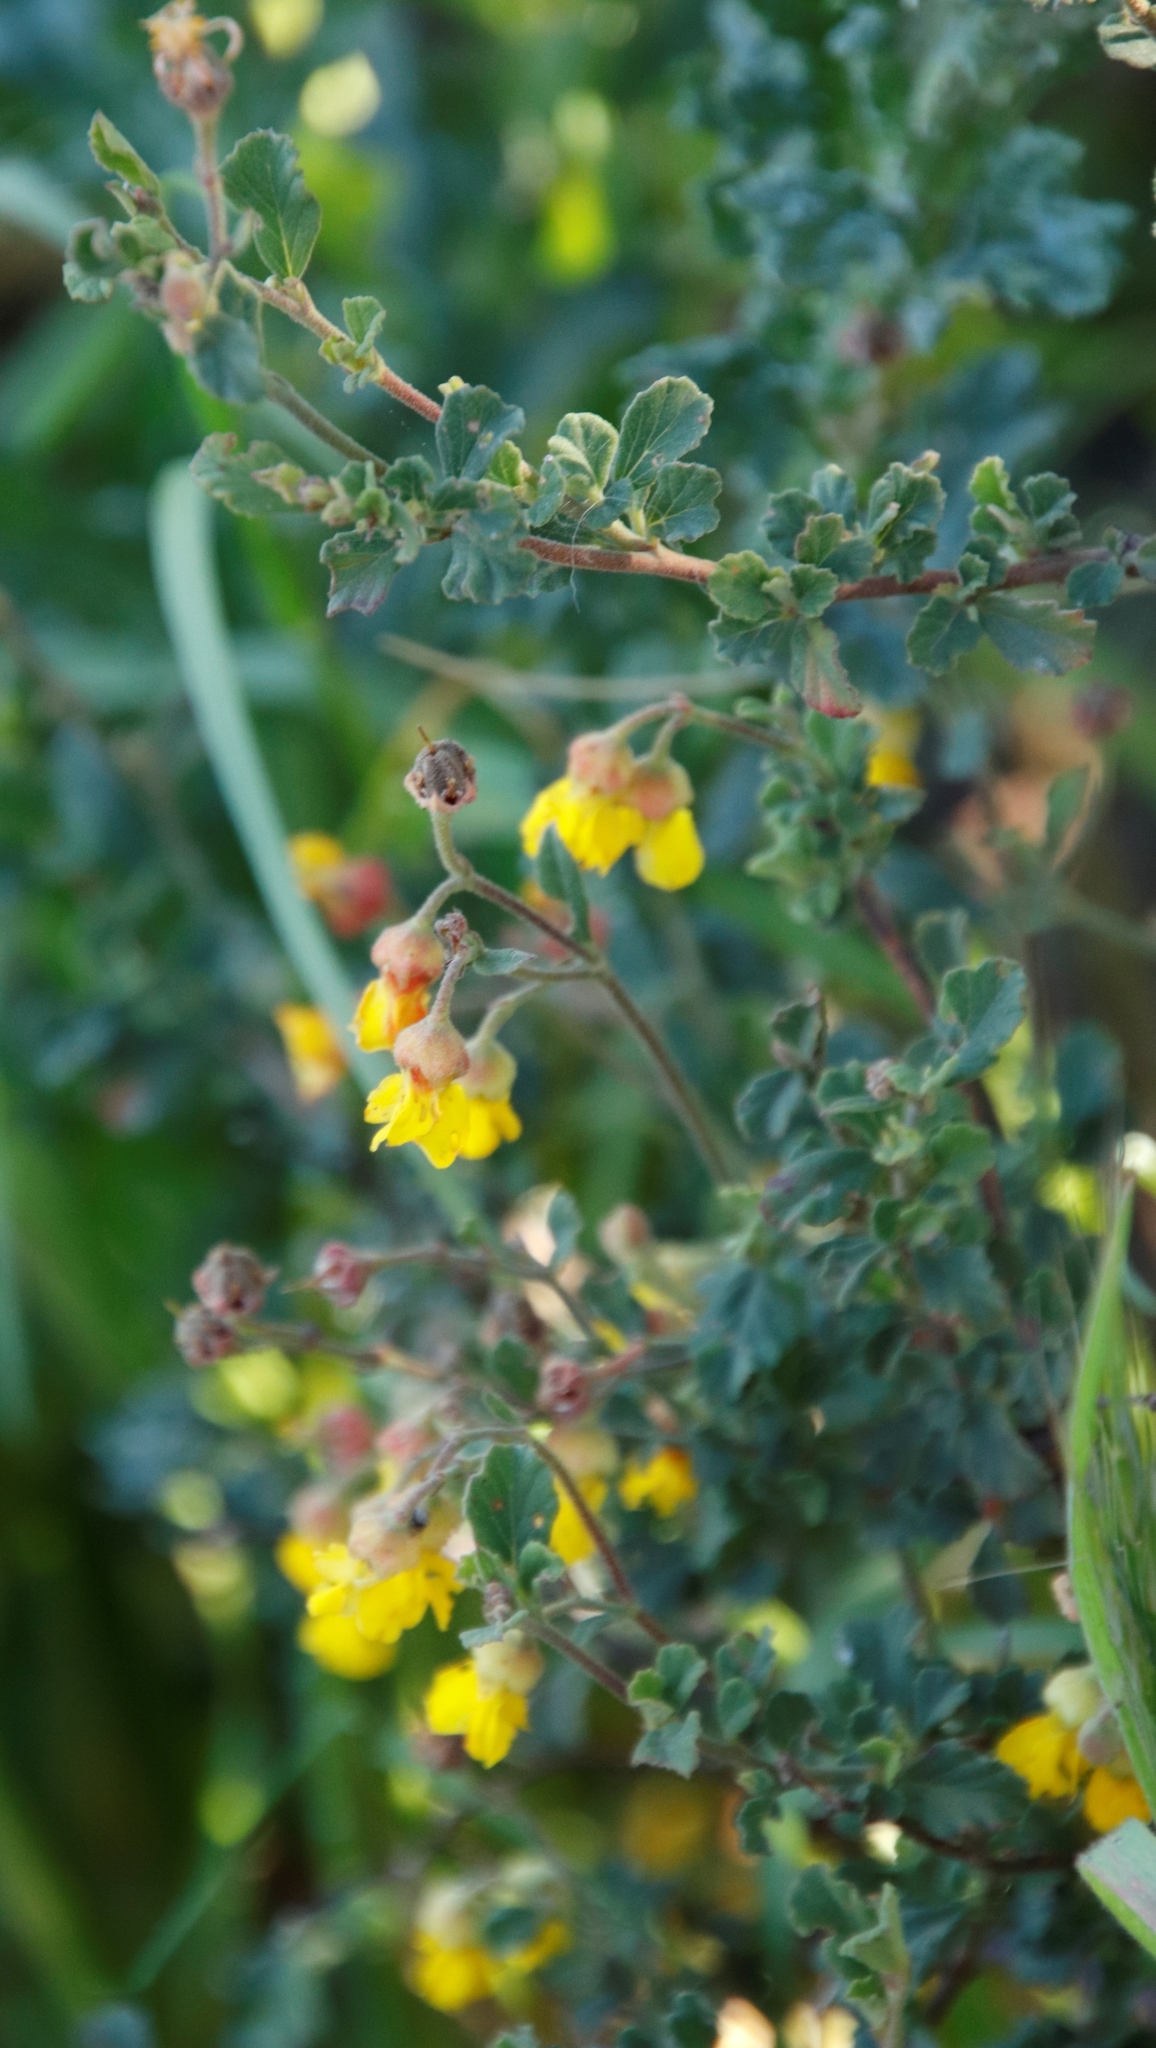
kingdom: Plantae
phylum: Tracheophyta
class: Magnoliopsida
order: Malvales
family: Malvaceae
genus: Hermannia
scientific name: Hermannia multiflora
